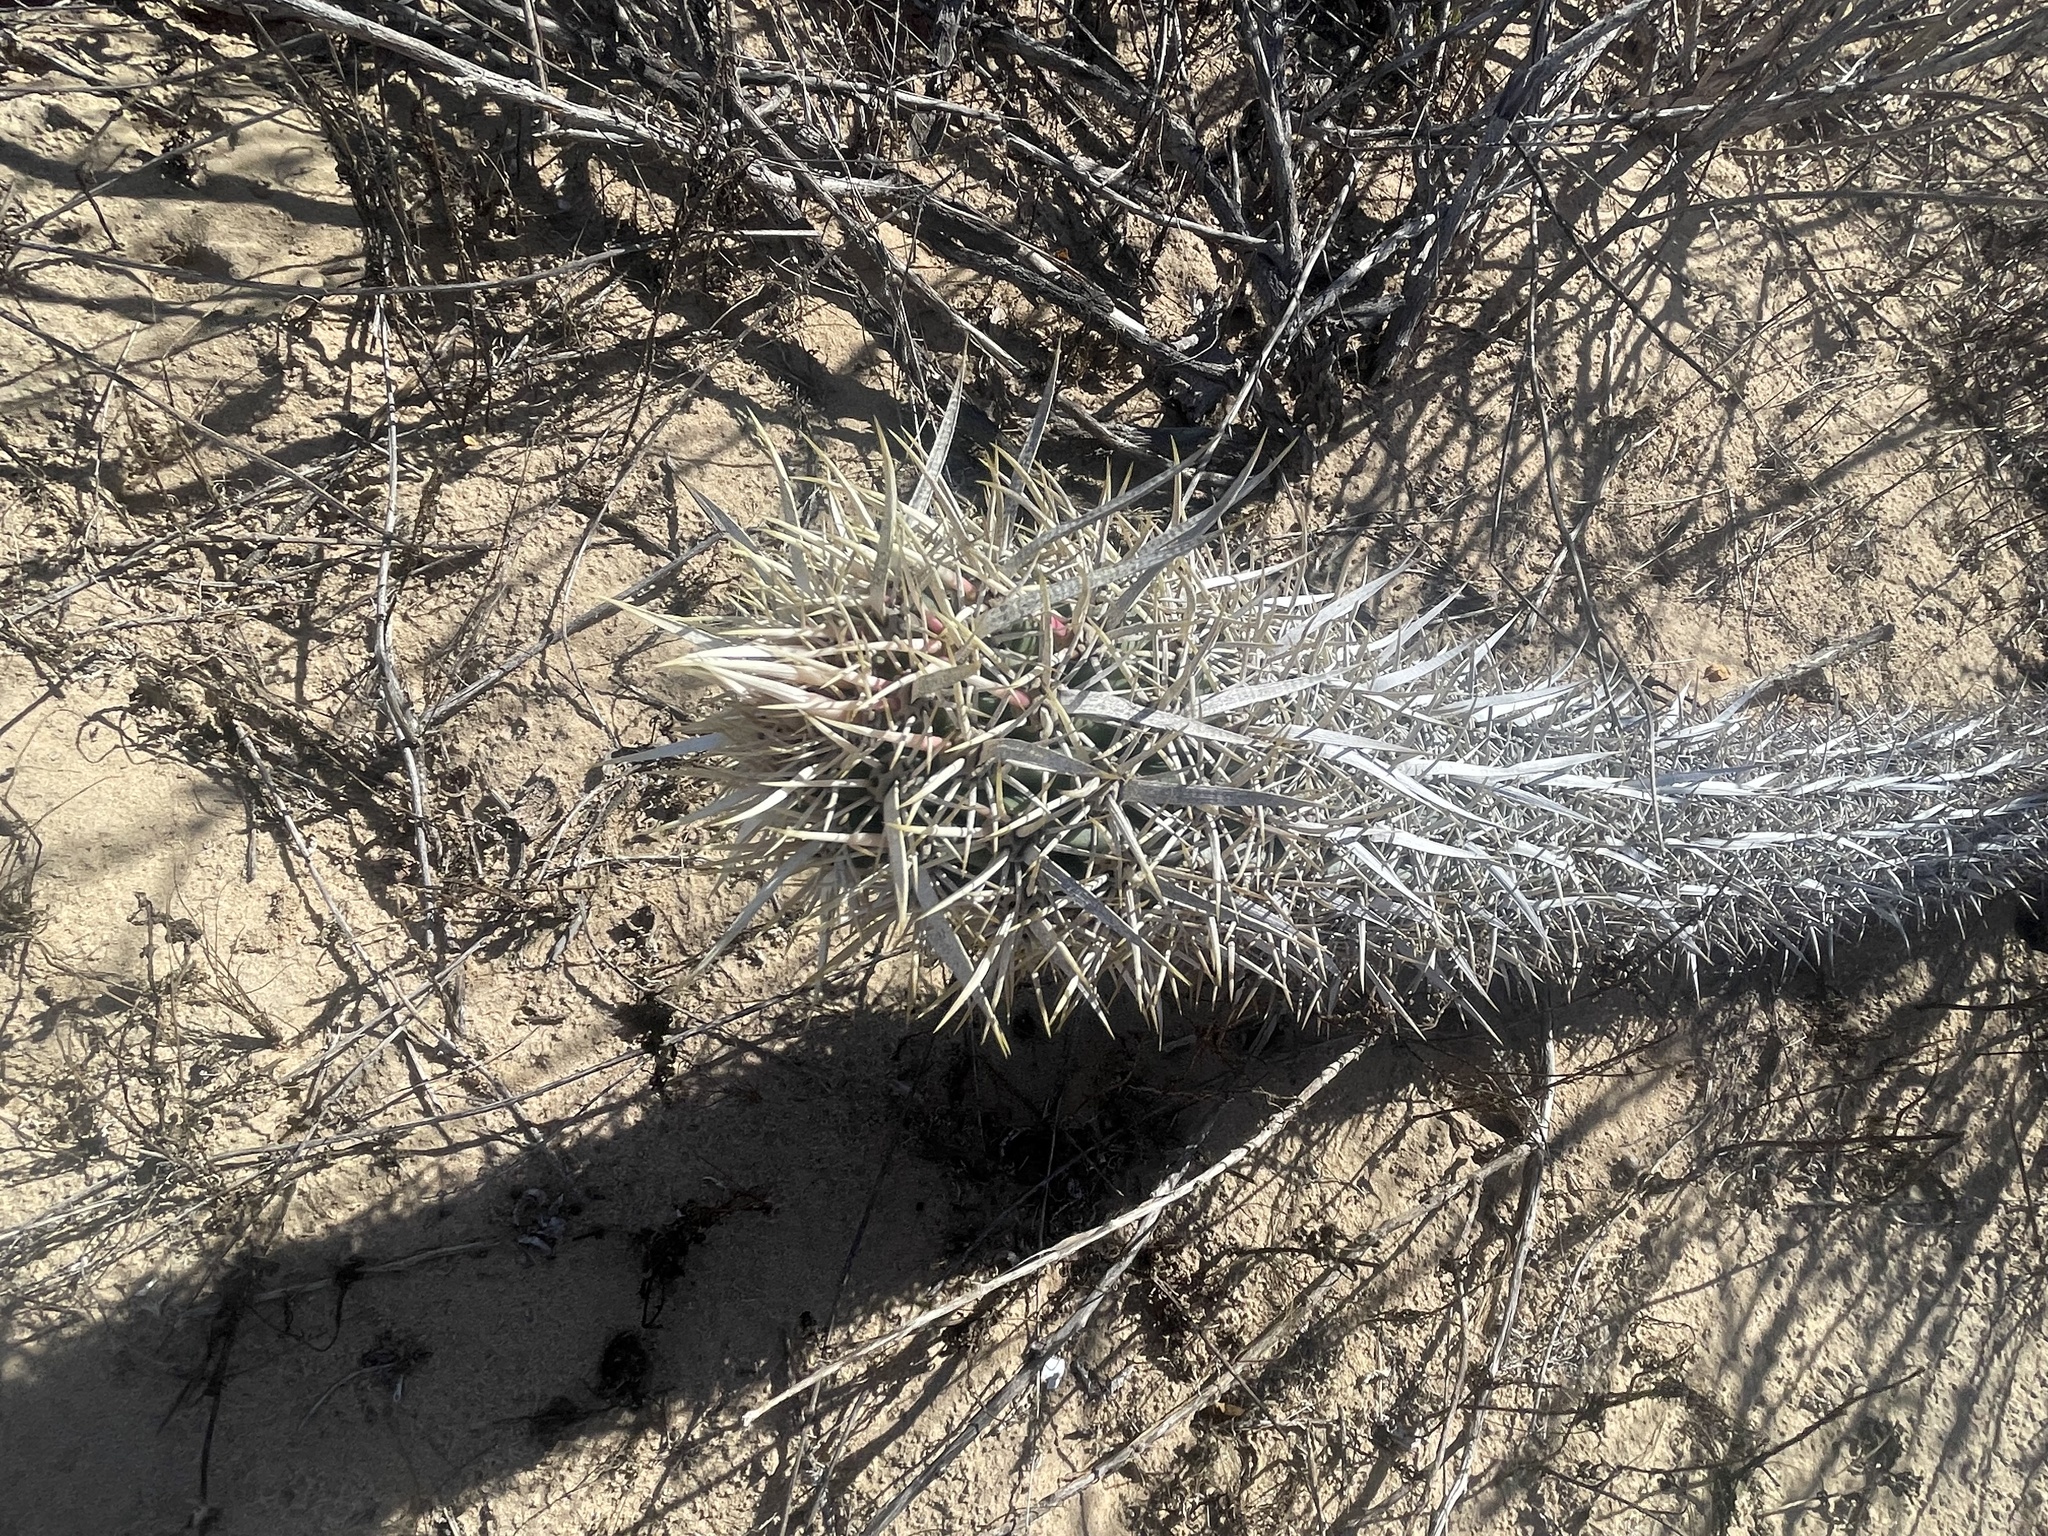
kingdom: Plantae
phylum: Tracheophyta
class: Magnoliopsida
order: Caryophyllales
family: Cactaceae
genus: Stenocereus
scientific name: Stenocereus eruca
